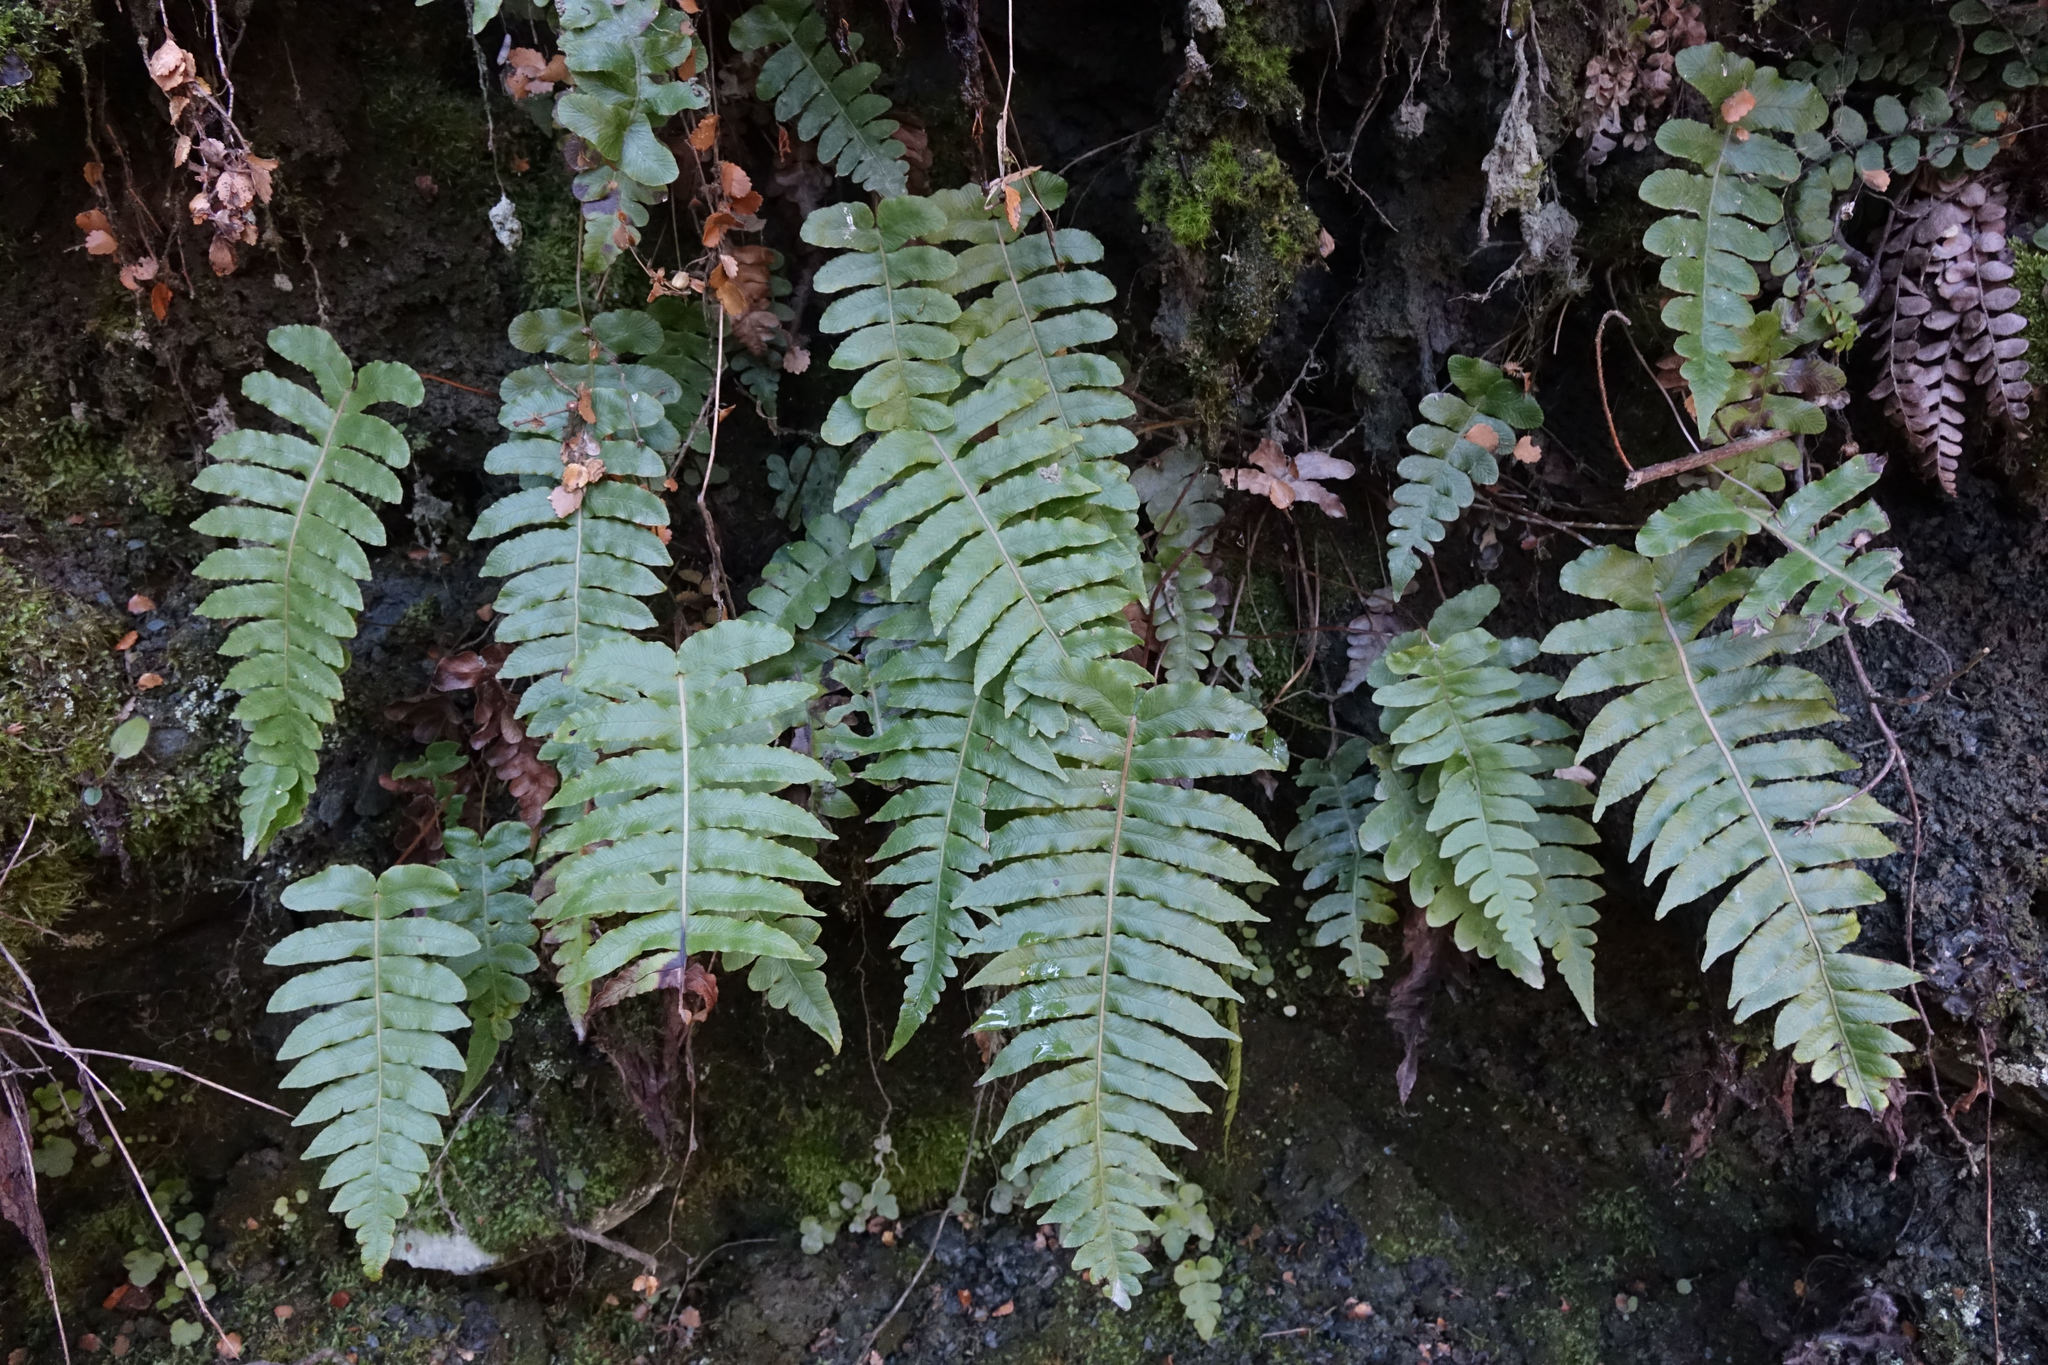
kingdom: Plantae
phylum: Tracheophyta
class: Polypodiopsida
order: Polypodiales
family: Blechnaceae
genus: Cranfillia
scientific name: Cranfillia vulcanica
